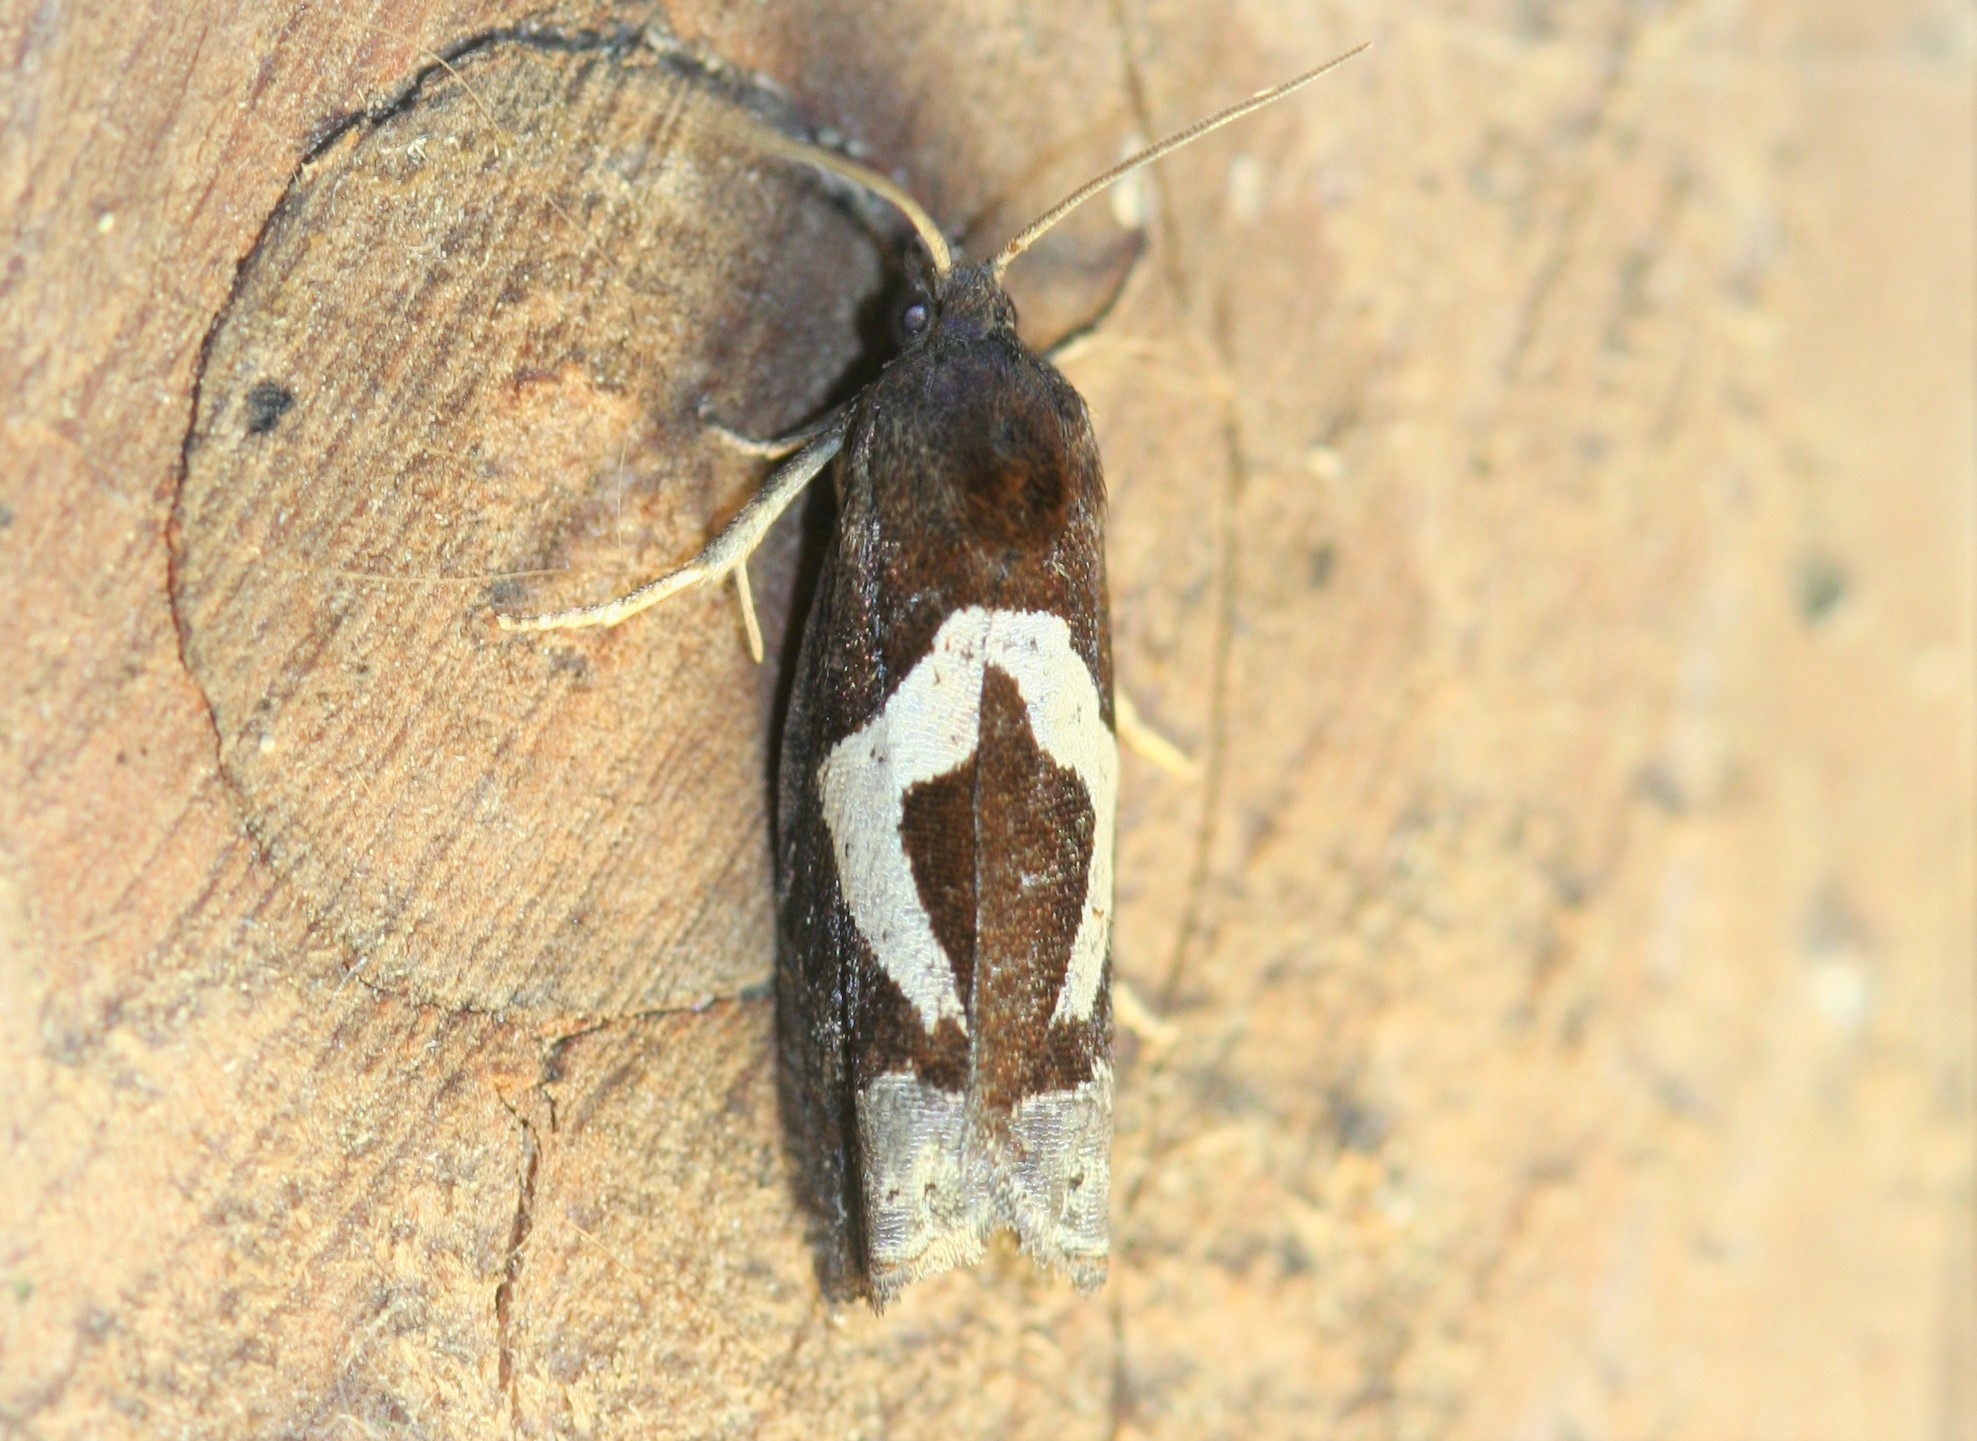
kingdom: Animalia
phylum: Arthropoda
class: Insecta
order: Lepidoptera
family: Tortricidae
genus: Epiblema
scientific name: Epiblema foenella
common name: White-foot bell
